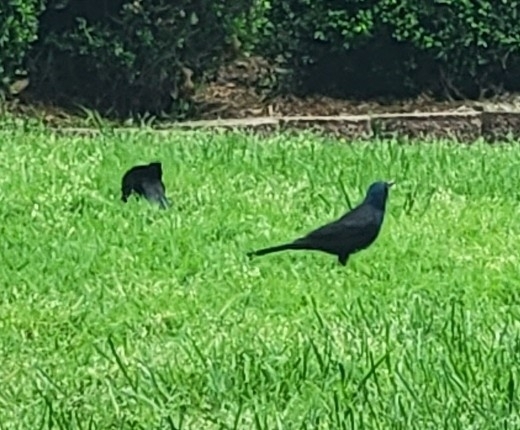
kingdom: Animalia
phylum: Chordata
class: Aves
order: Passeriformes
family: Icteridae
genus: Quiscalus
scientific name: Quiscalus quiscula
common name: Common grackle
